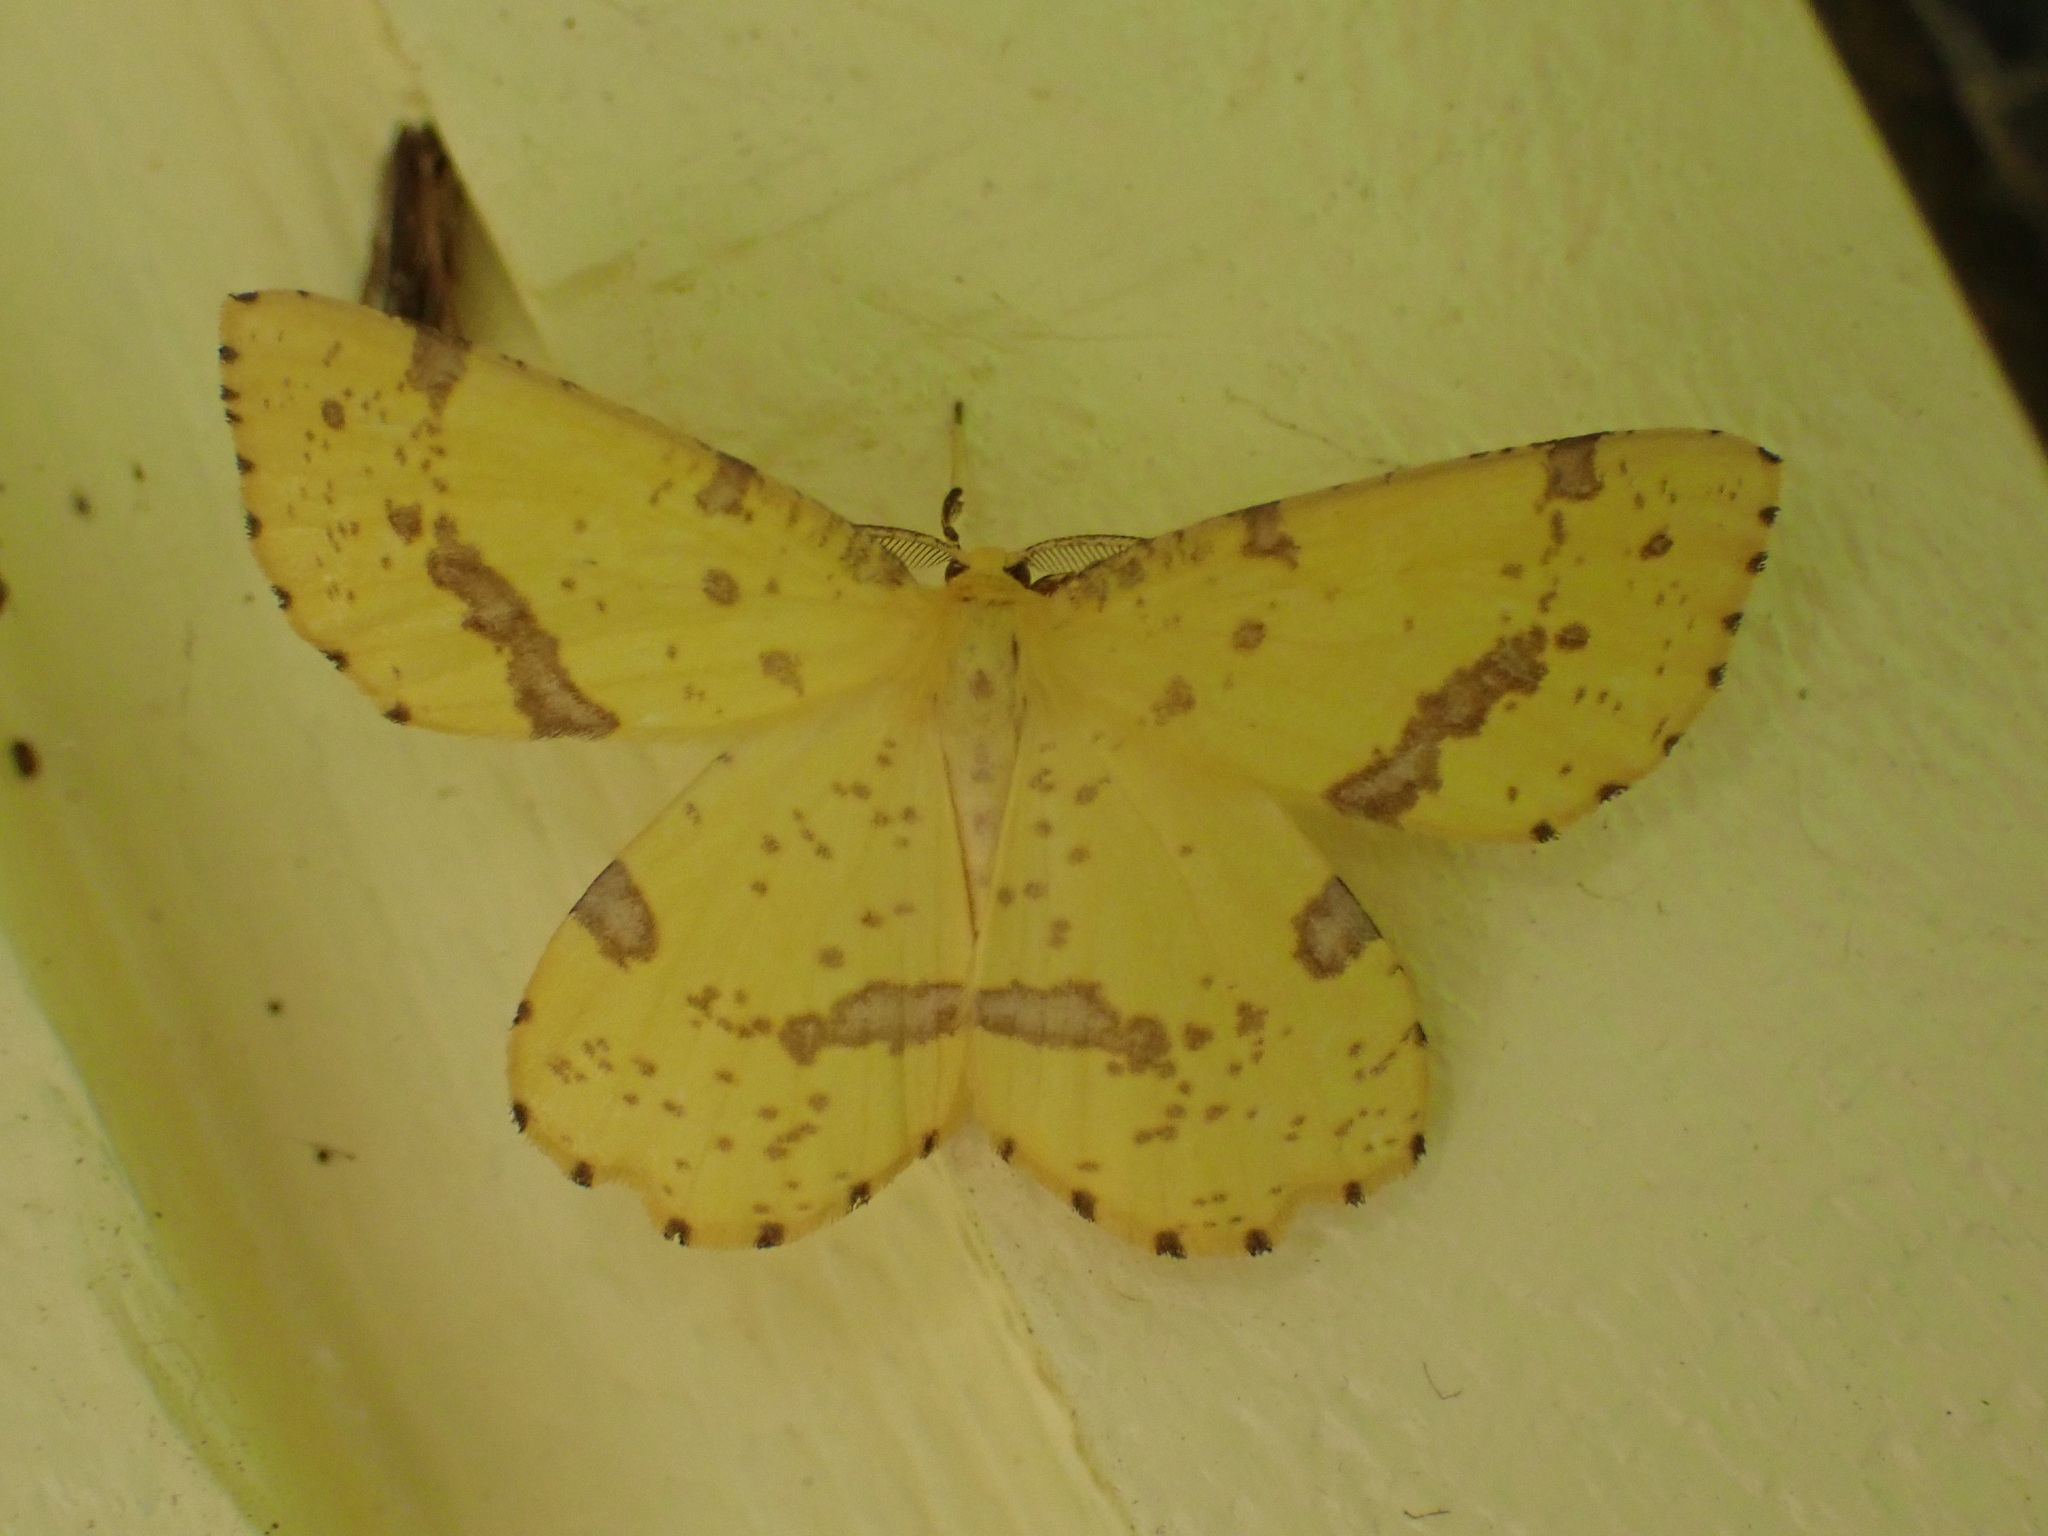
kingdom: Animalia
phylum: Arthropoda
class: Insecta
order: Lepidoptera
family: Geometridae
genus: Xanthotype
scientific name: Xanthotype
